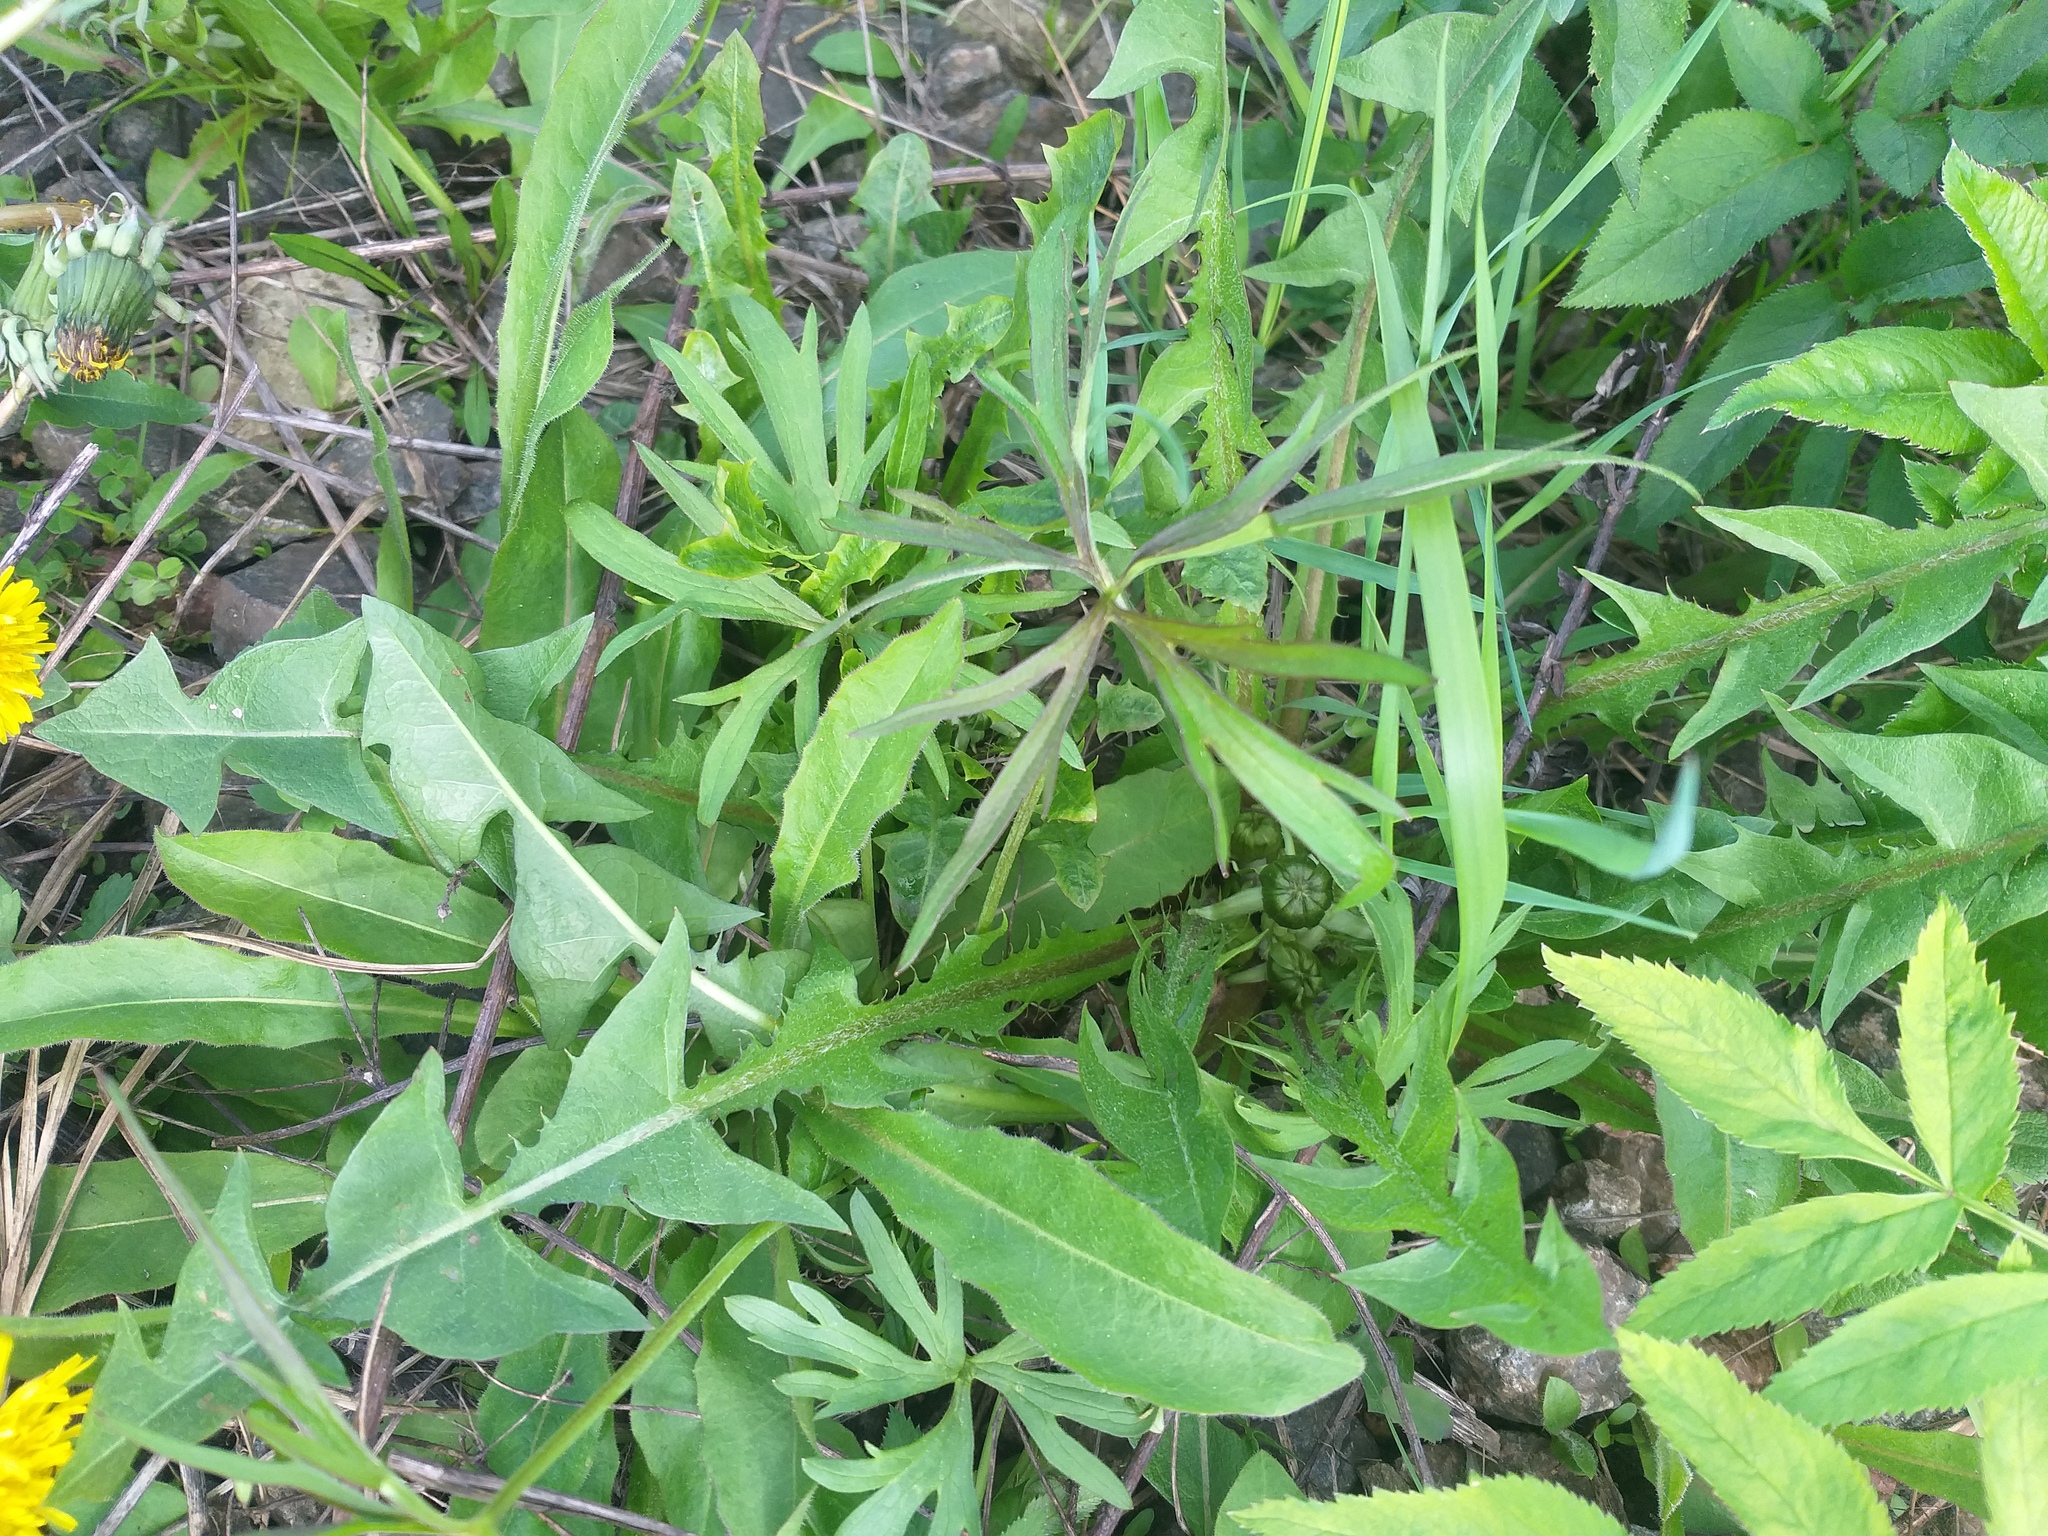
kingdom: Plantae
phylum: Tracheophyta
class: Magnoliopsida
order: Ranunculales
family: Ranunculaceae
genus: Ranunculus
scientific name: Ranunculus acris
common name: Meadow buttercup
